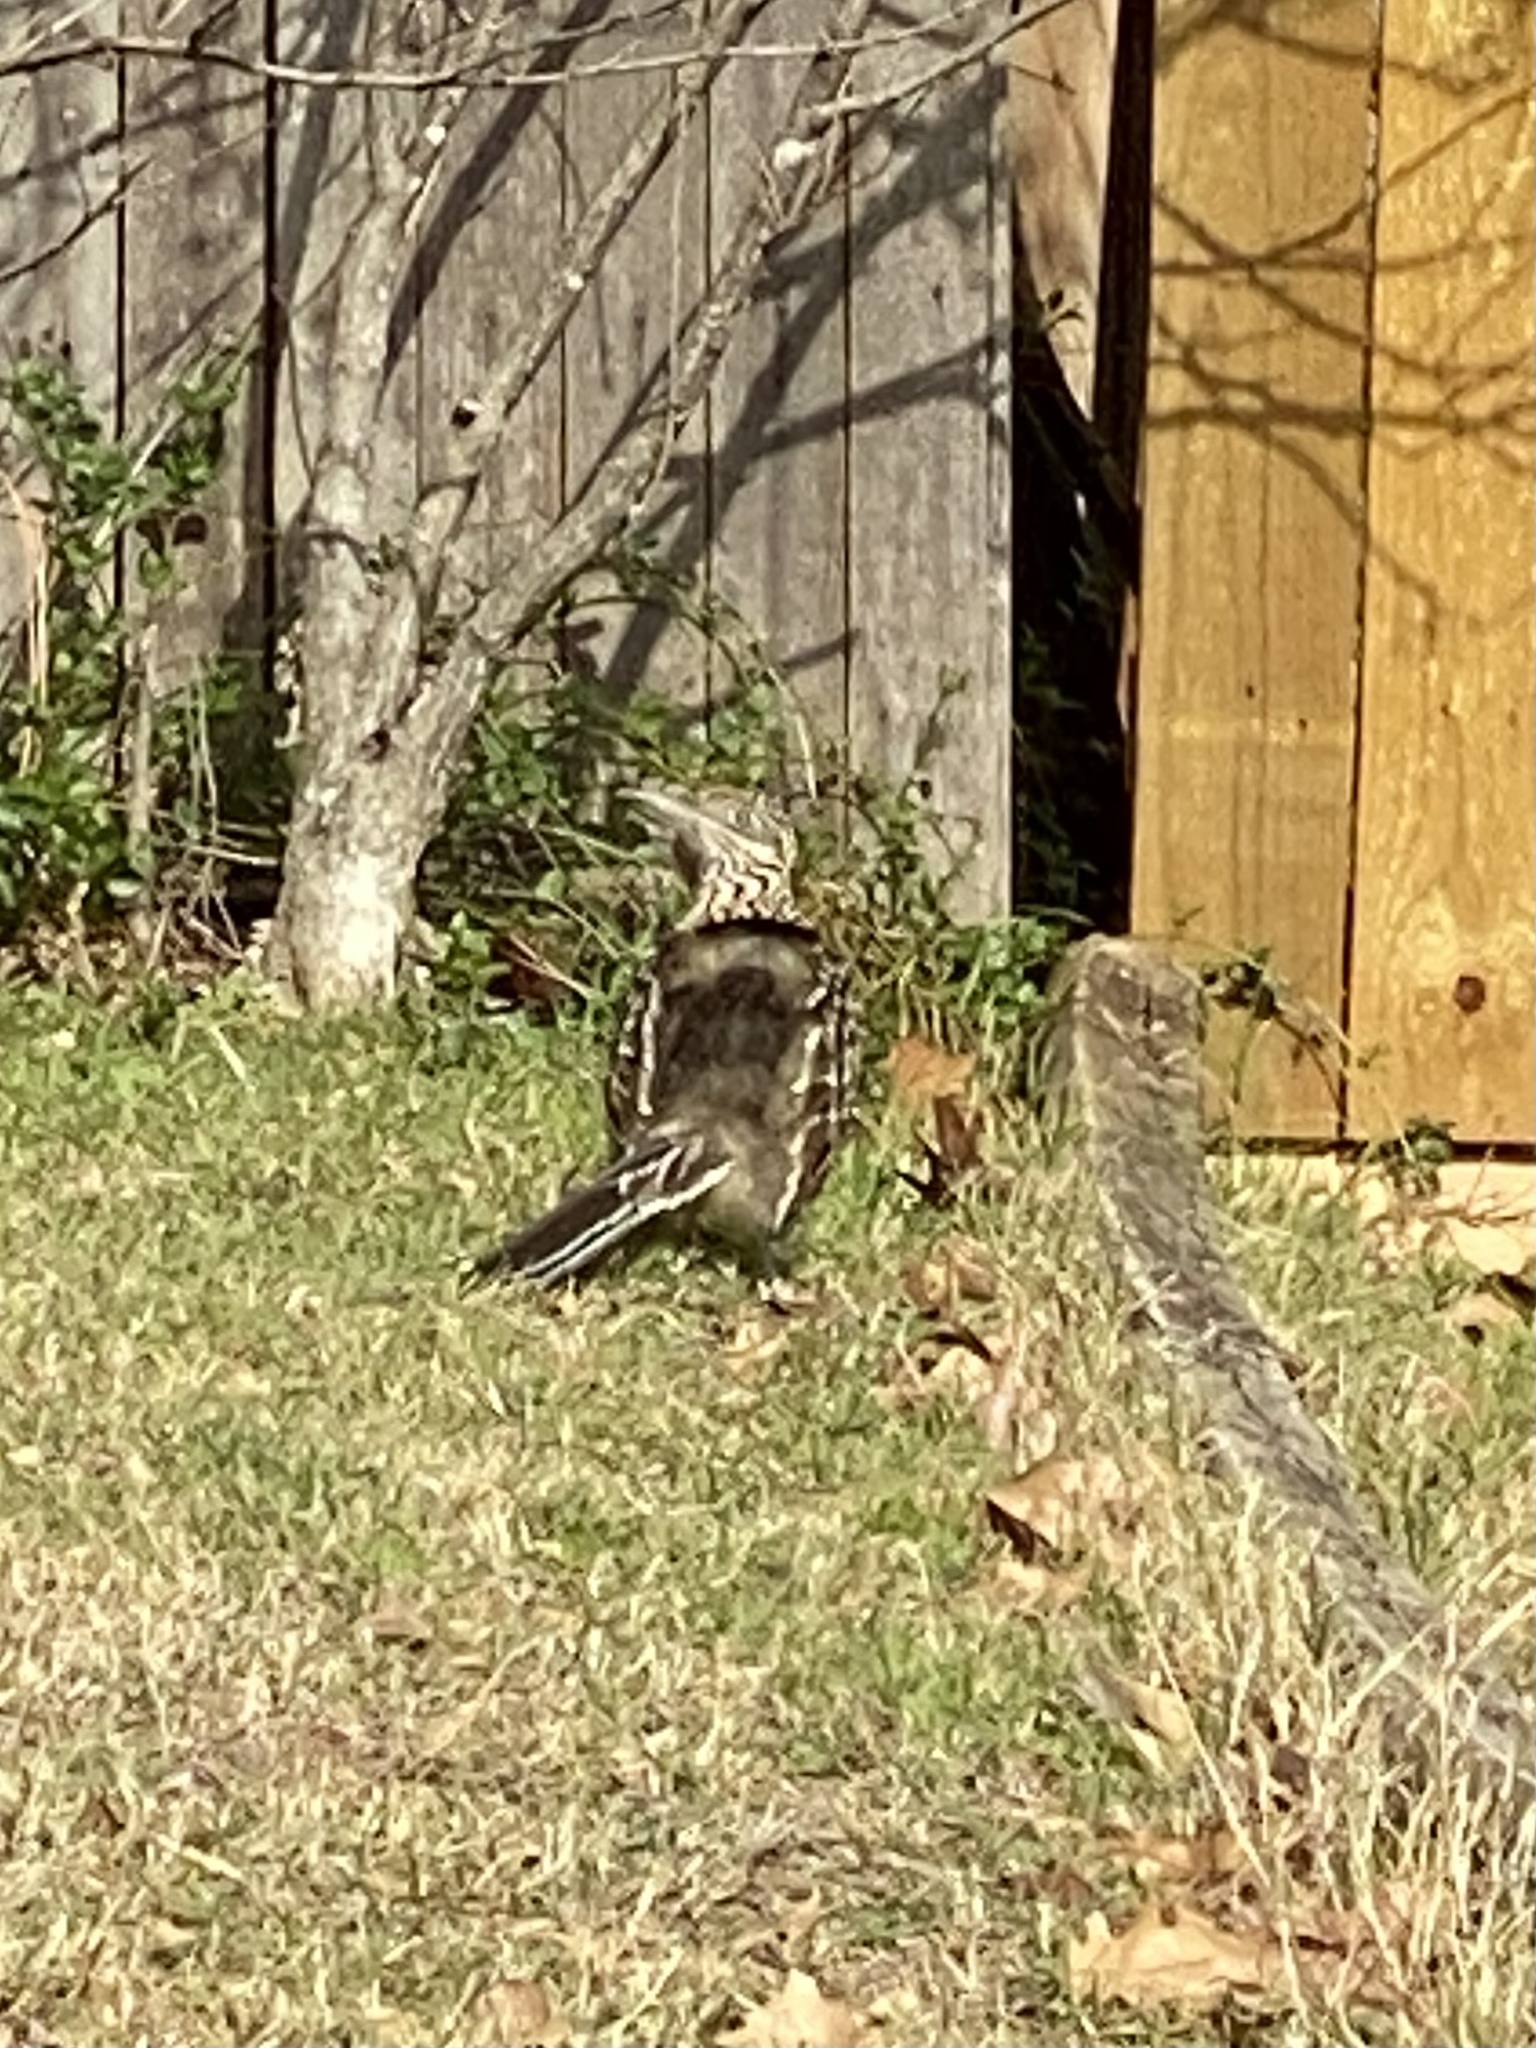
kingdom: Animalia
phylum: Chordata
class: Aves
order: Cuculiformes
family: Cuculidae
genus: Geococcyx
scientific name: Geococcyx californianus
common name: Greater roadrunner
